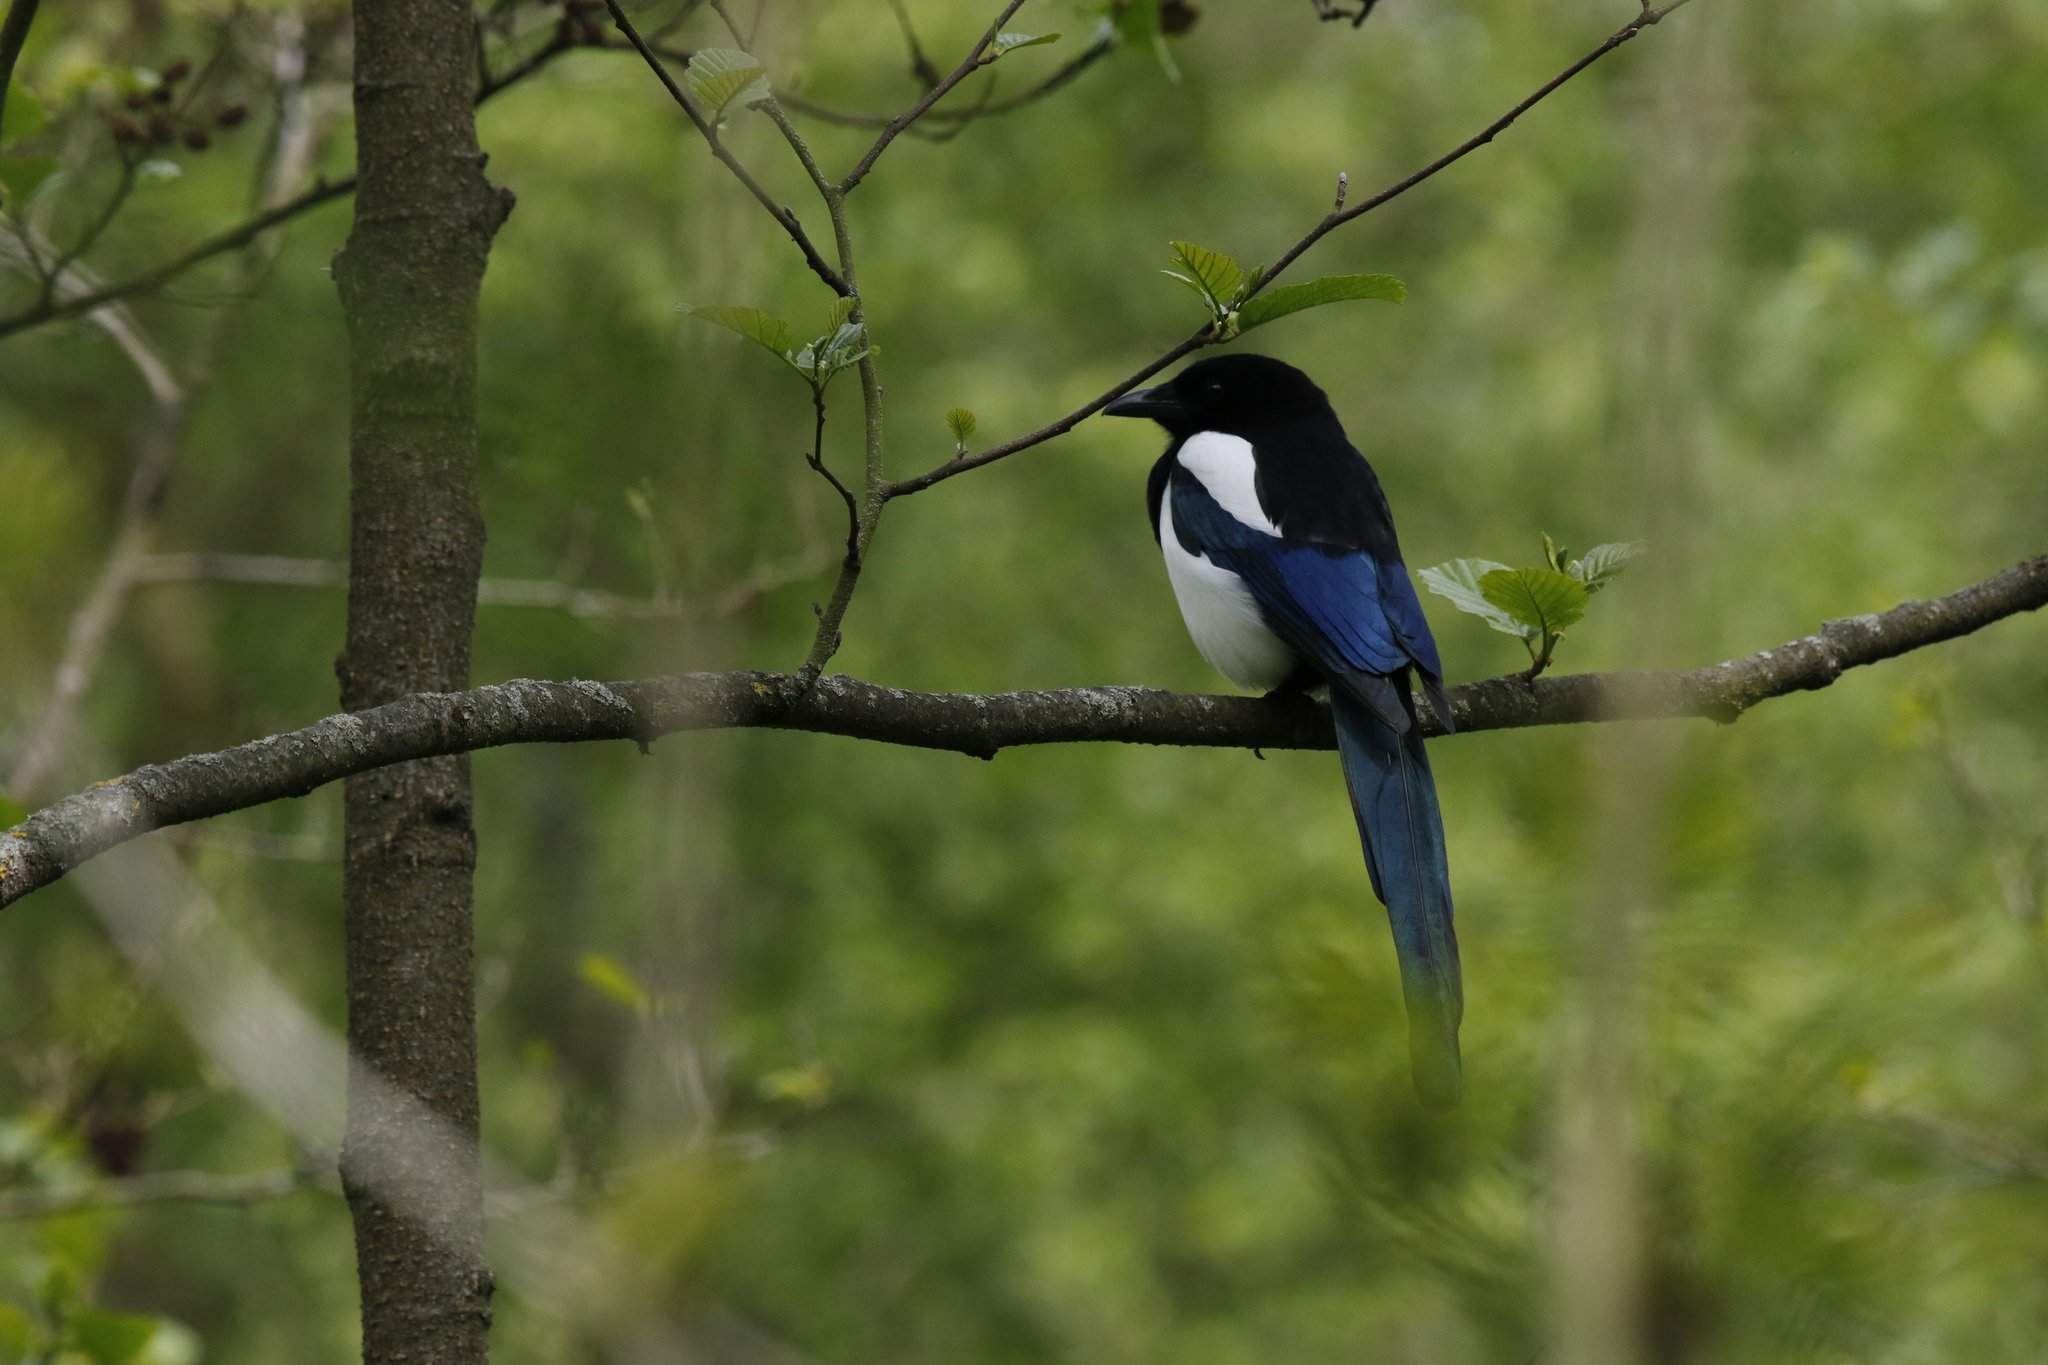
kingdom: Animalia
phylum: Chordata
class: Aves
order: Passeriformes
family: Corvidae
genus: Pica
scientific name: Pica pica
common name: Eurasian magpie
